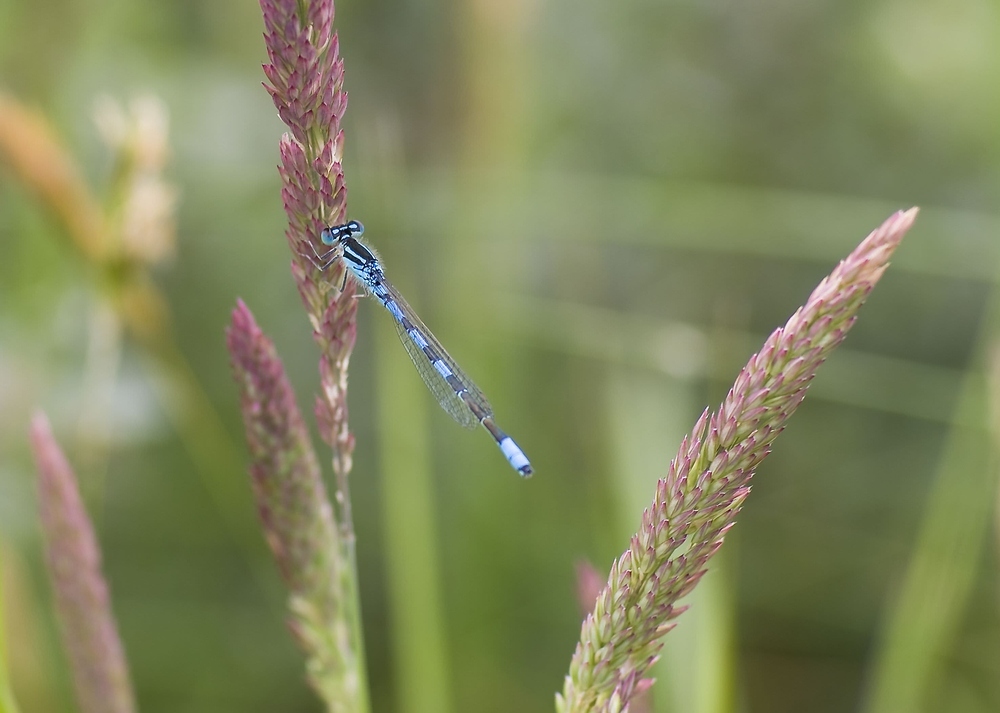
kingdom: Animalia
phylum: Arthropoda
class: Insecta
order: Odonata
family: Coenagrionidae
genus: Coenagrion
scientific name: Coenagrion scitulum
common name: Dainty bluet
